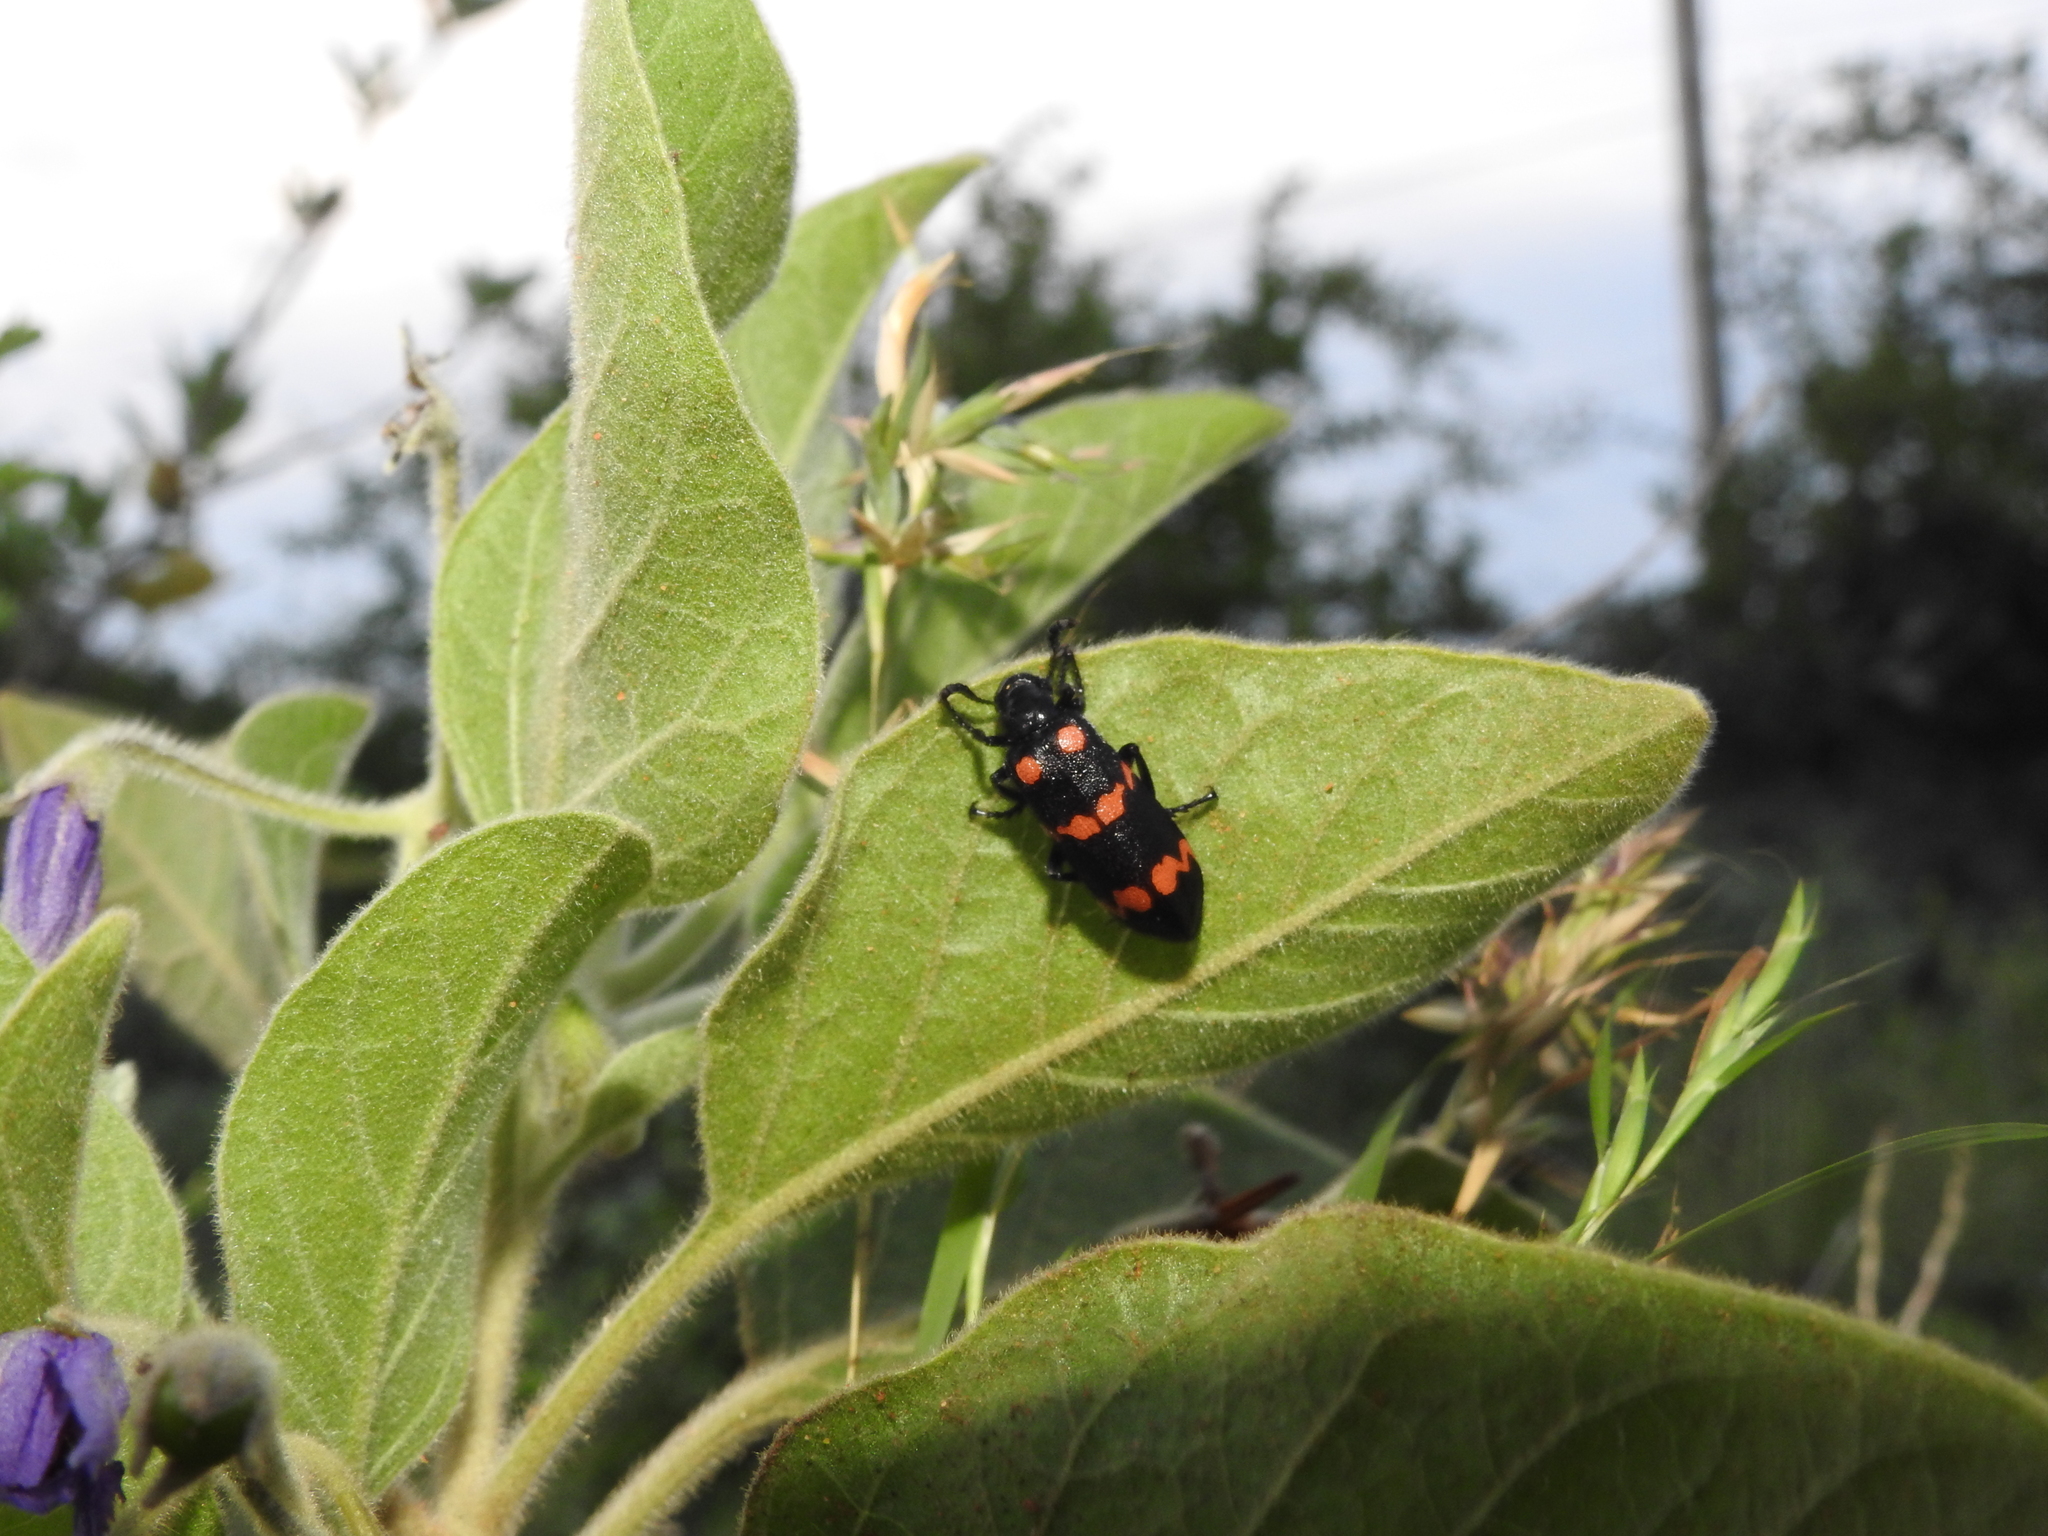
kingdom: Animalia
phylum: Arthropoda
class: Insecta
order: Coleoptera
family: Meloidae
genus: Hycleus
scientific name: Hycleus biundulatus
